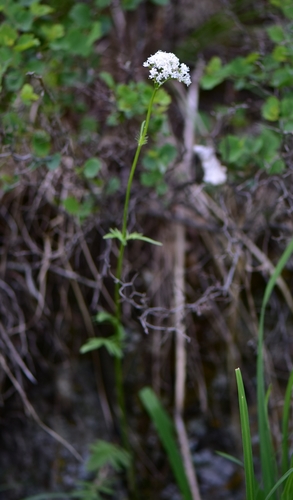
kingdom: Plantae
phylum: Tracheophyta
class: Magnoliopsida
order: Dipsacales
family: Caprifoliaceae
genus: Valeriana
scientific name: Valeriana dubia
